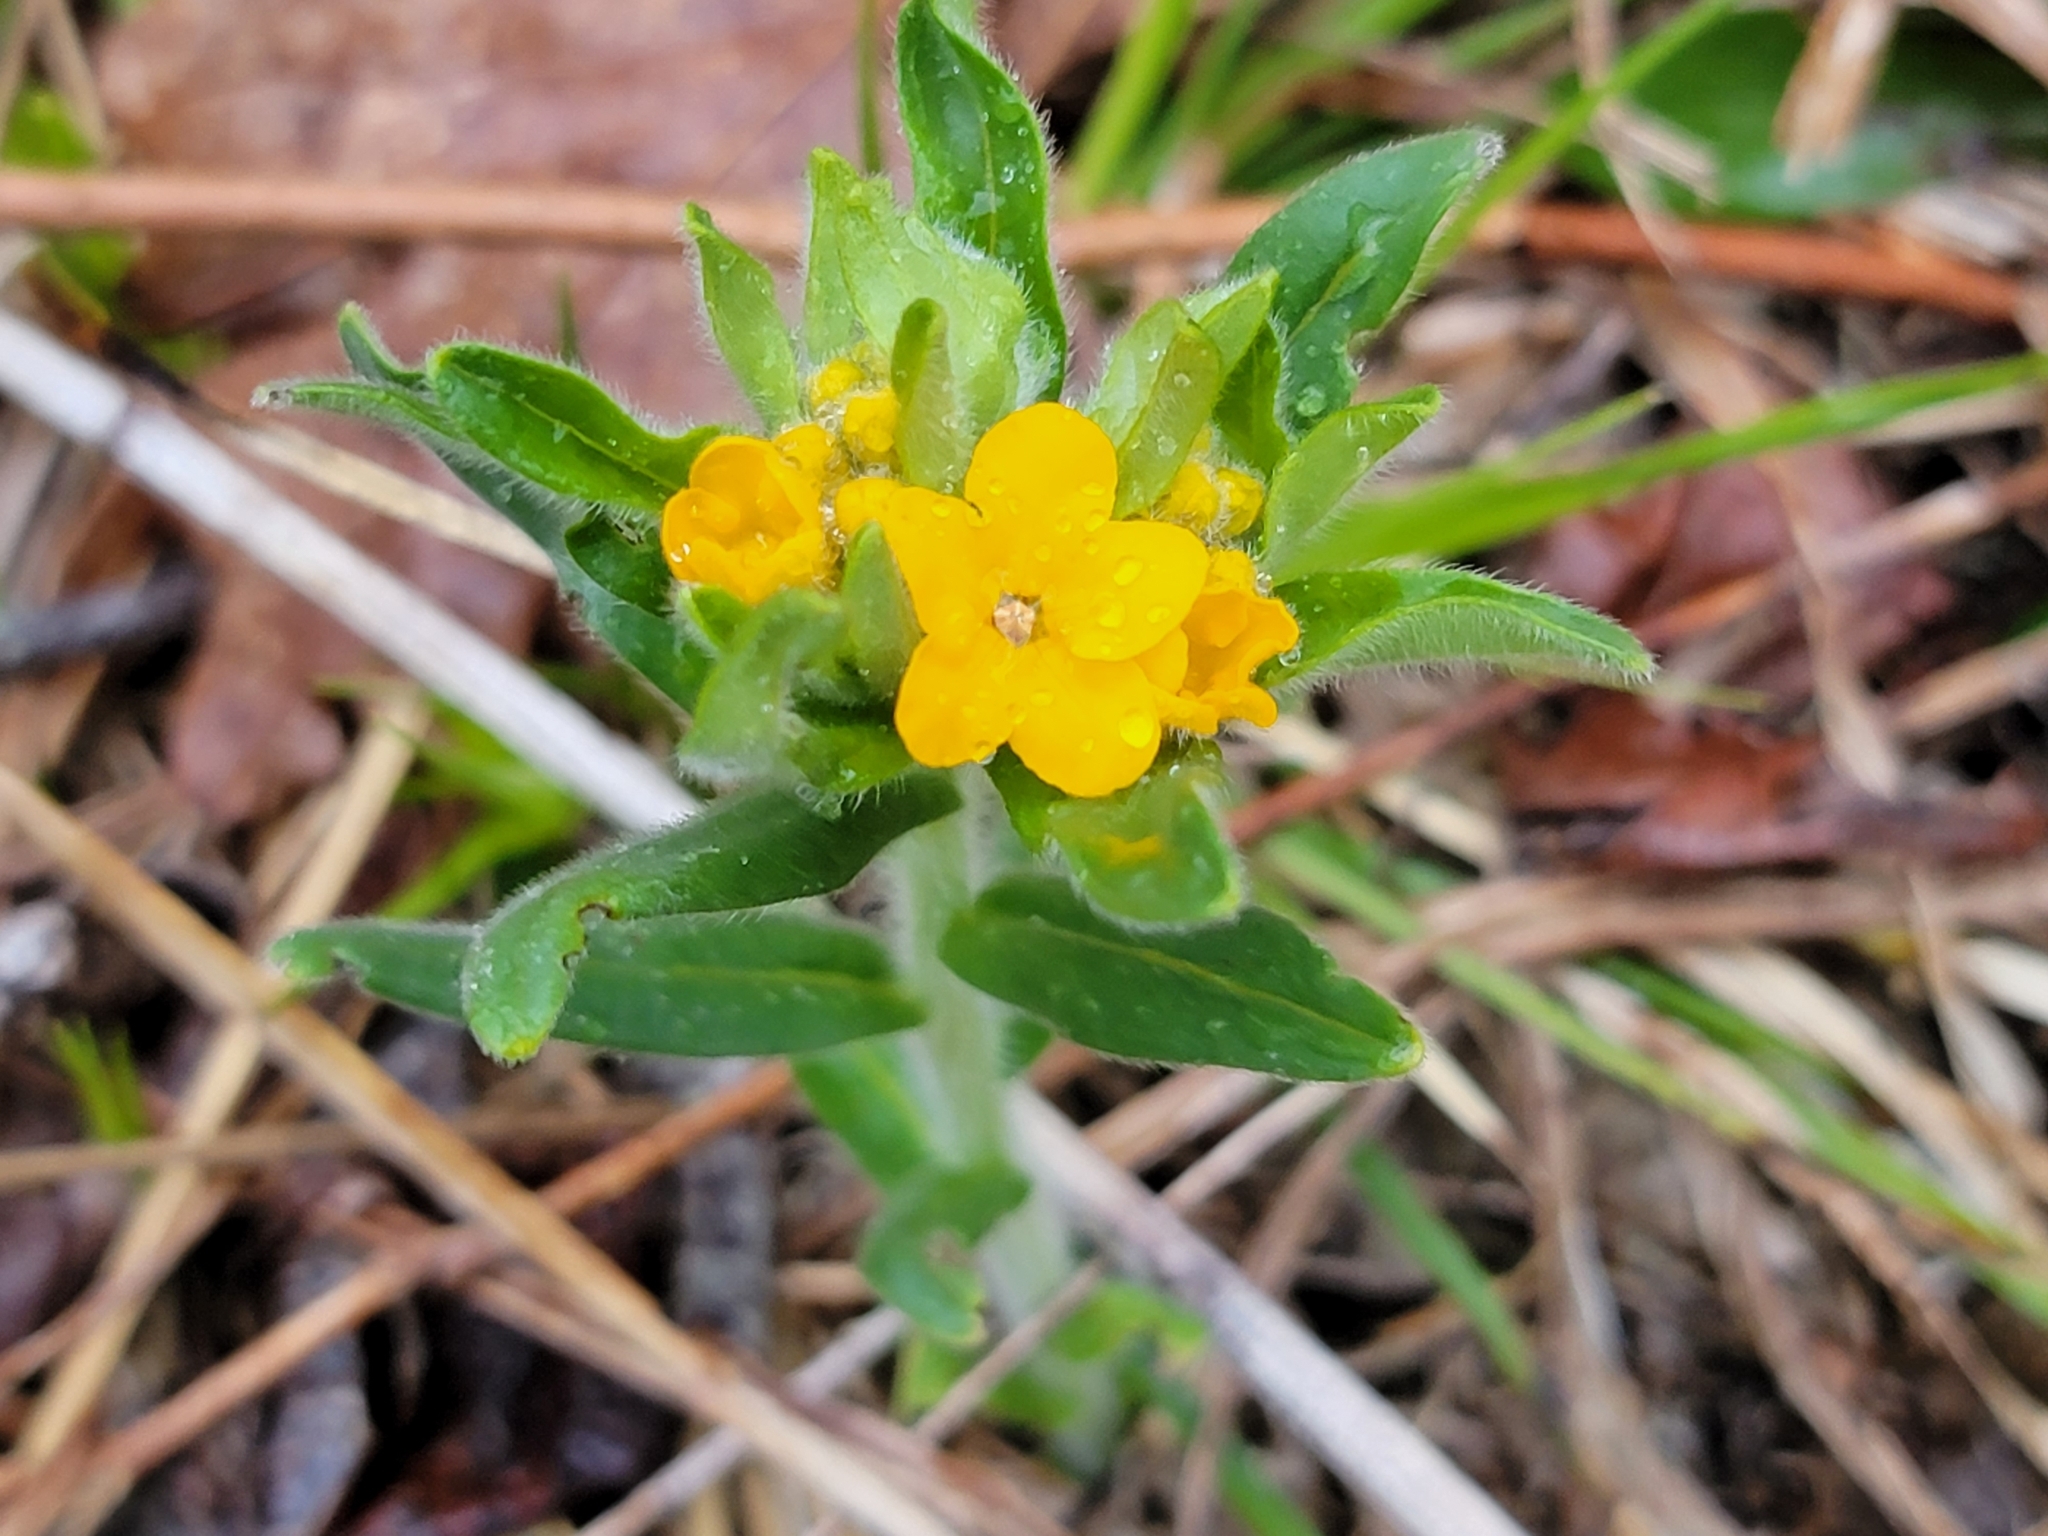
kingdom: Plantae
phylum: Tracheophyta
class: Magnoliopsida
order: Boraginales
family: Boraginaceae
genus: Lithospermum
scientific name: Lithospermum canescens
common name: Hoary puccoon
